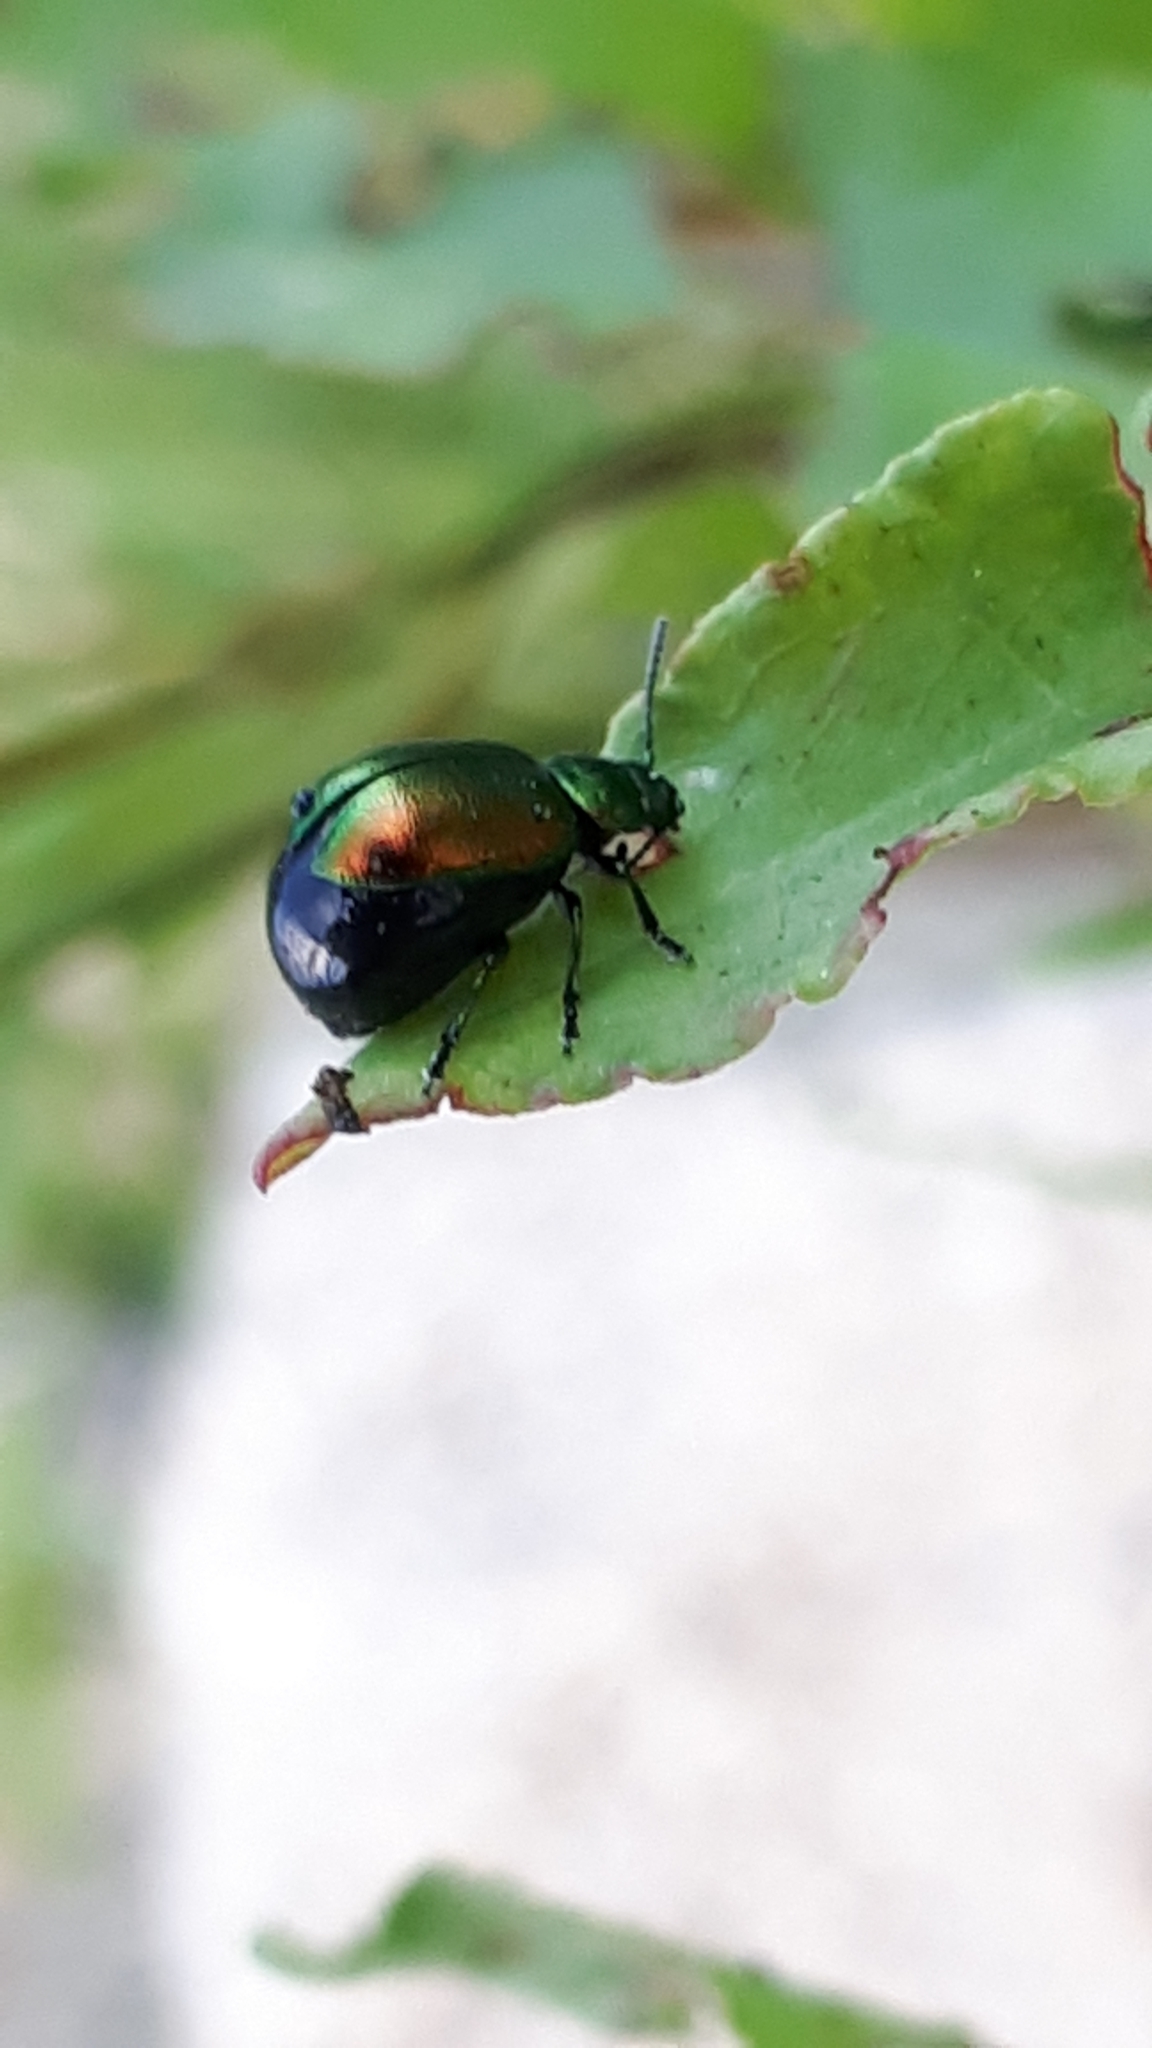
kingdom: Animalia
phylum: Arthropoda
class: Insecta
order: Coleoptera
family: Chrysomelidae
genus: Gastrophysa
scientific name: Gastrophysa viridula
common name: Green dock beetle
